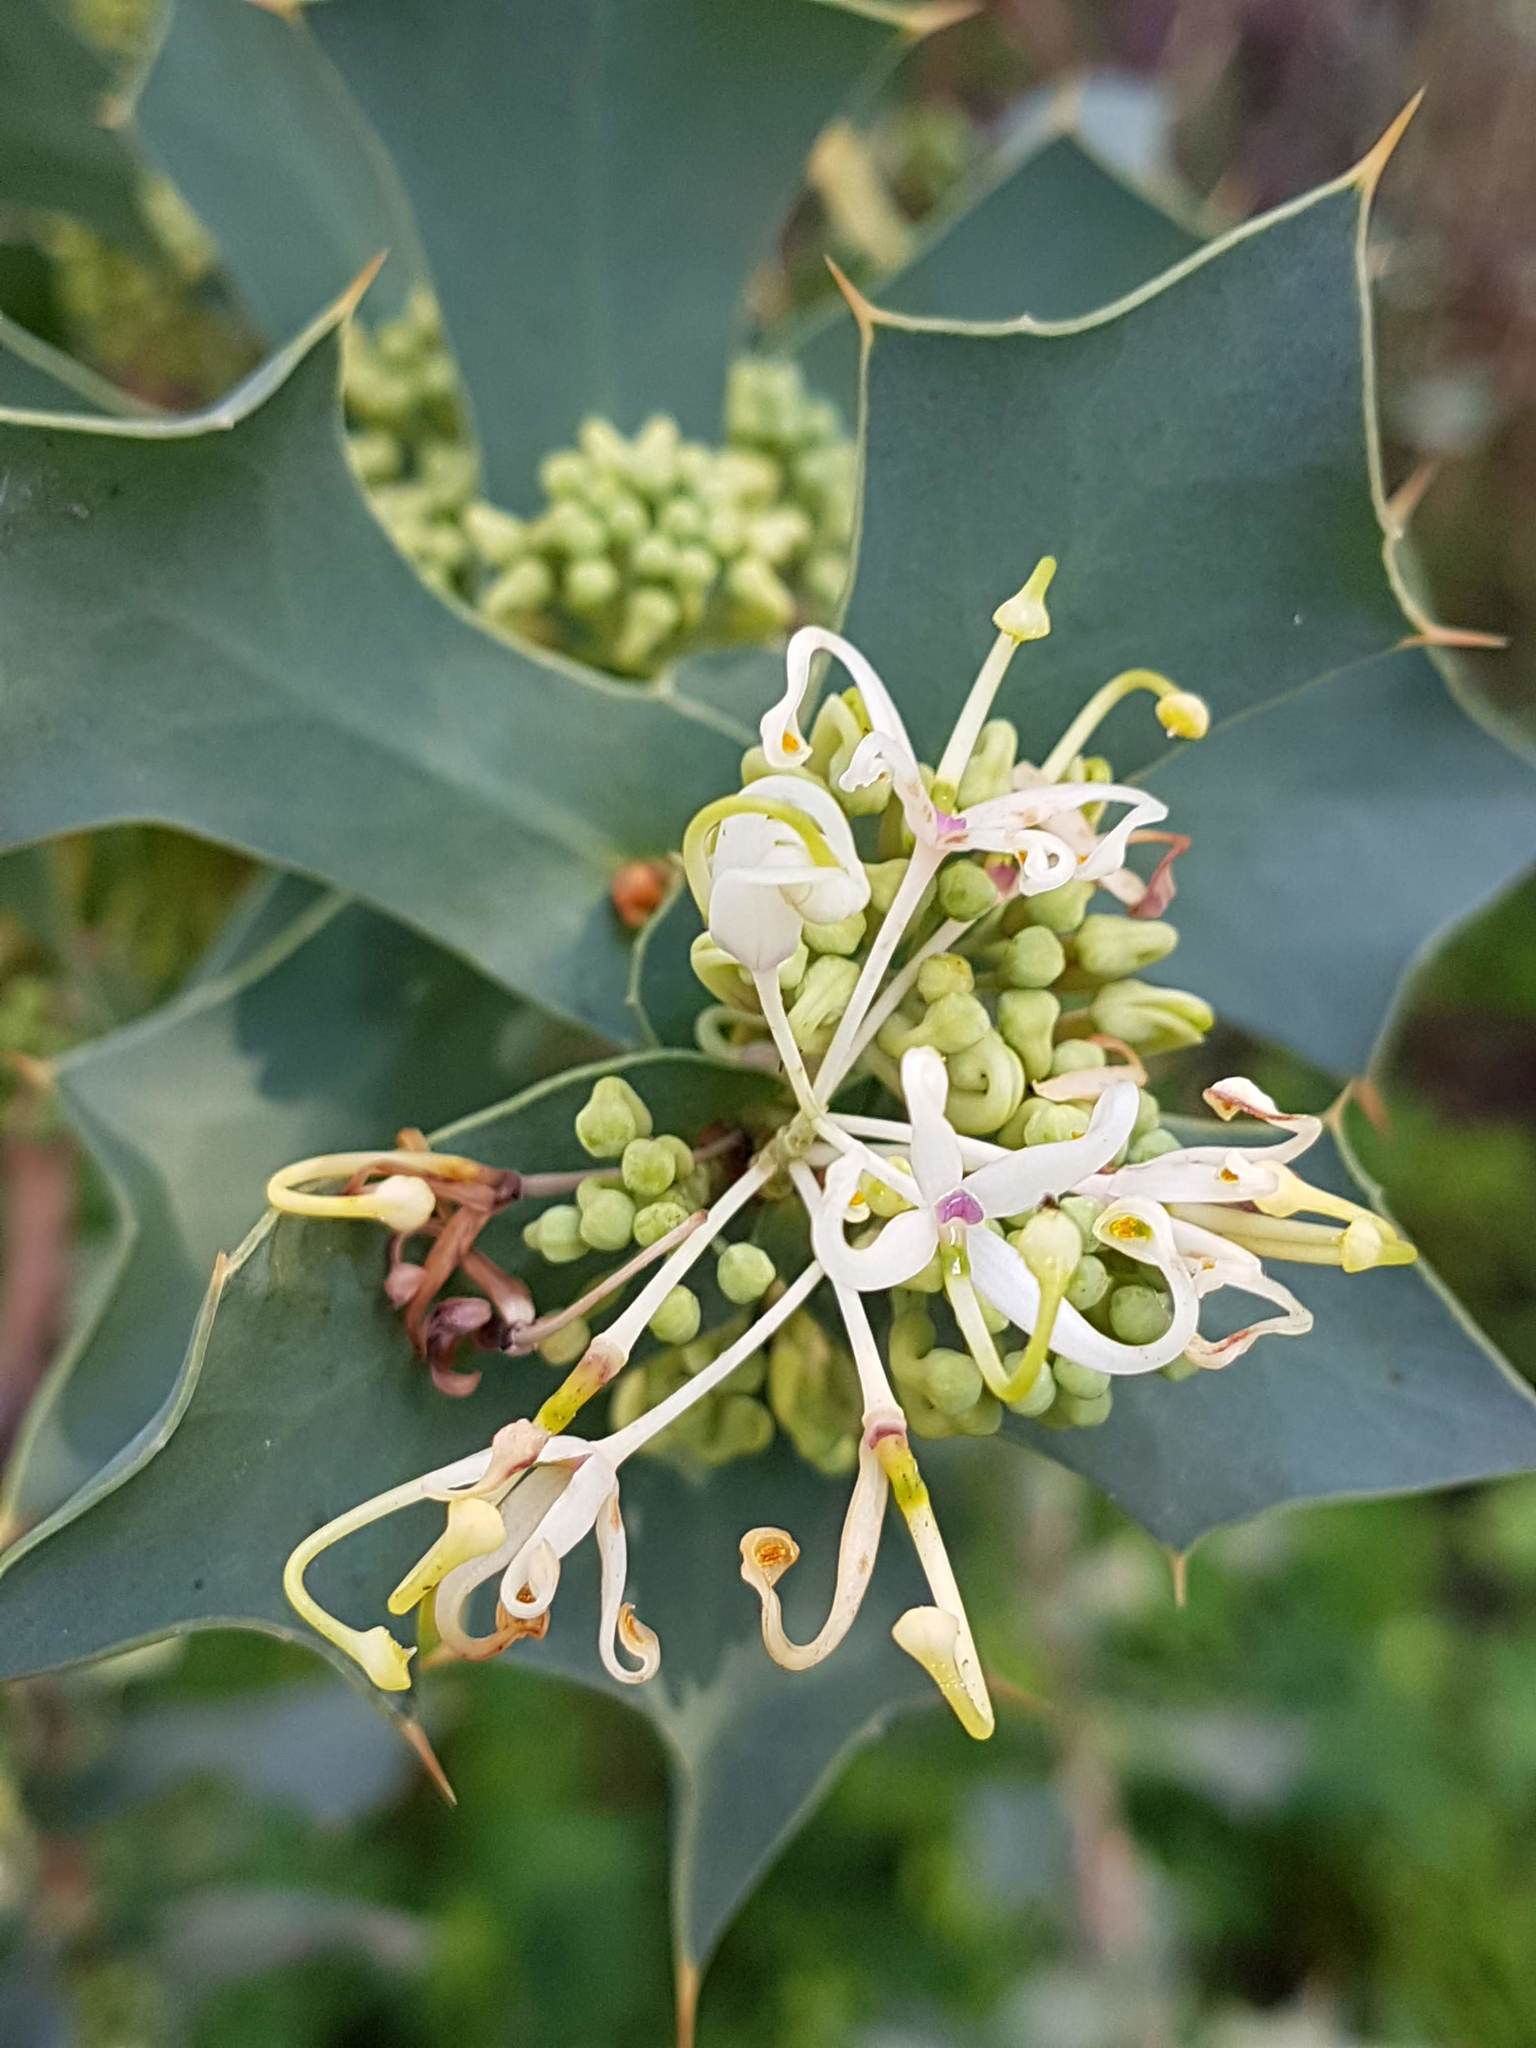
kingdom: Plantae
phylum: Tracheophyta
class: Magnoliopsida
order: Proteales
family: Proteaceae
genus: Hakea
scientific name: Hakea prostrata
